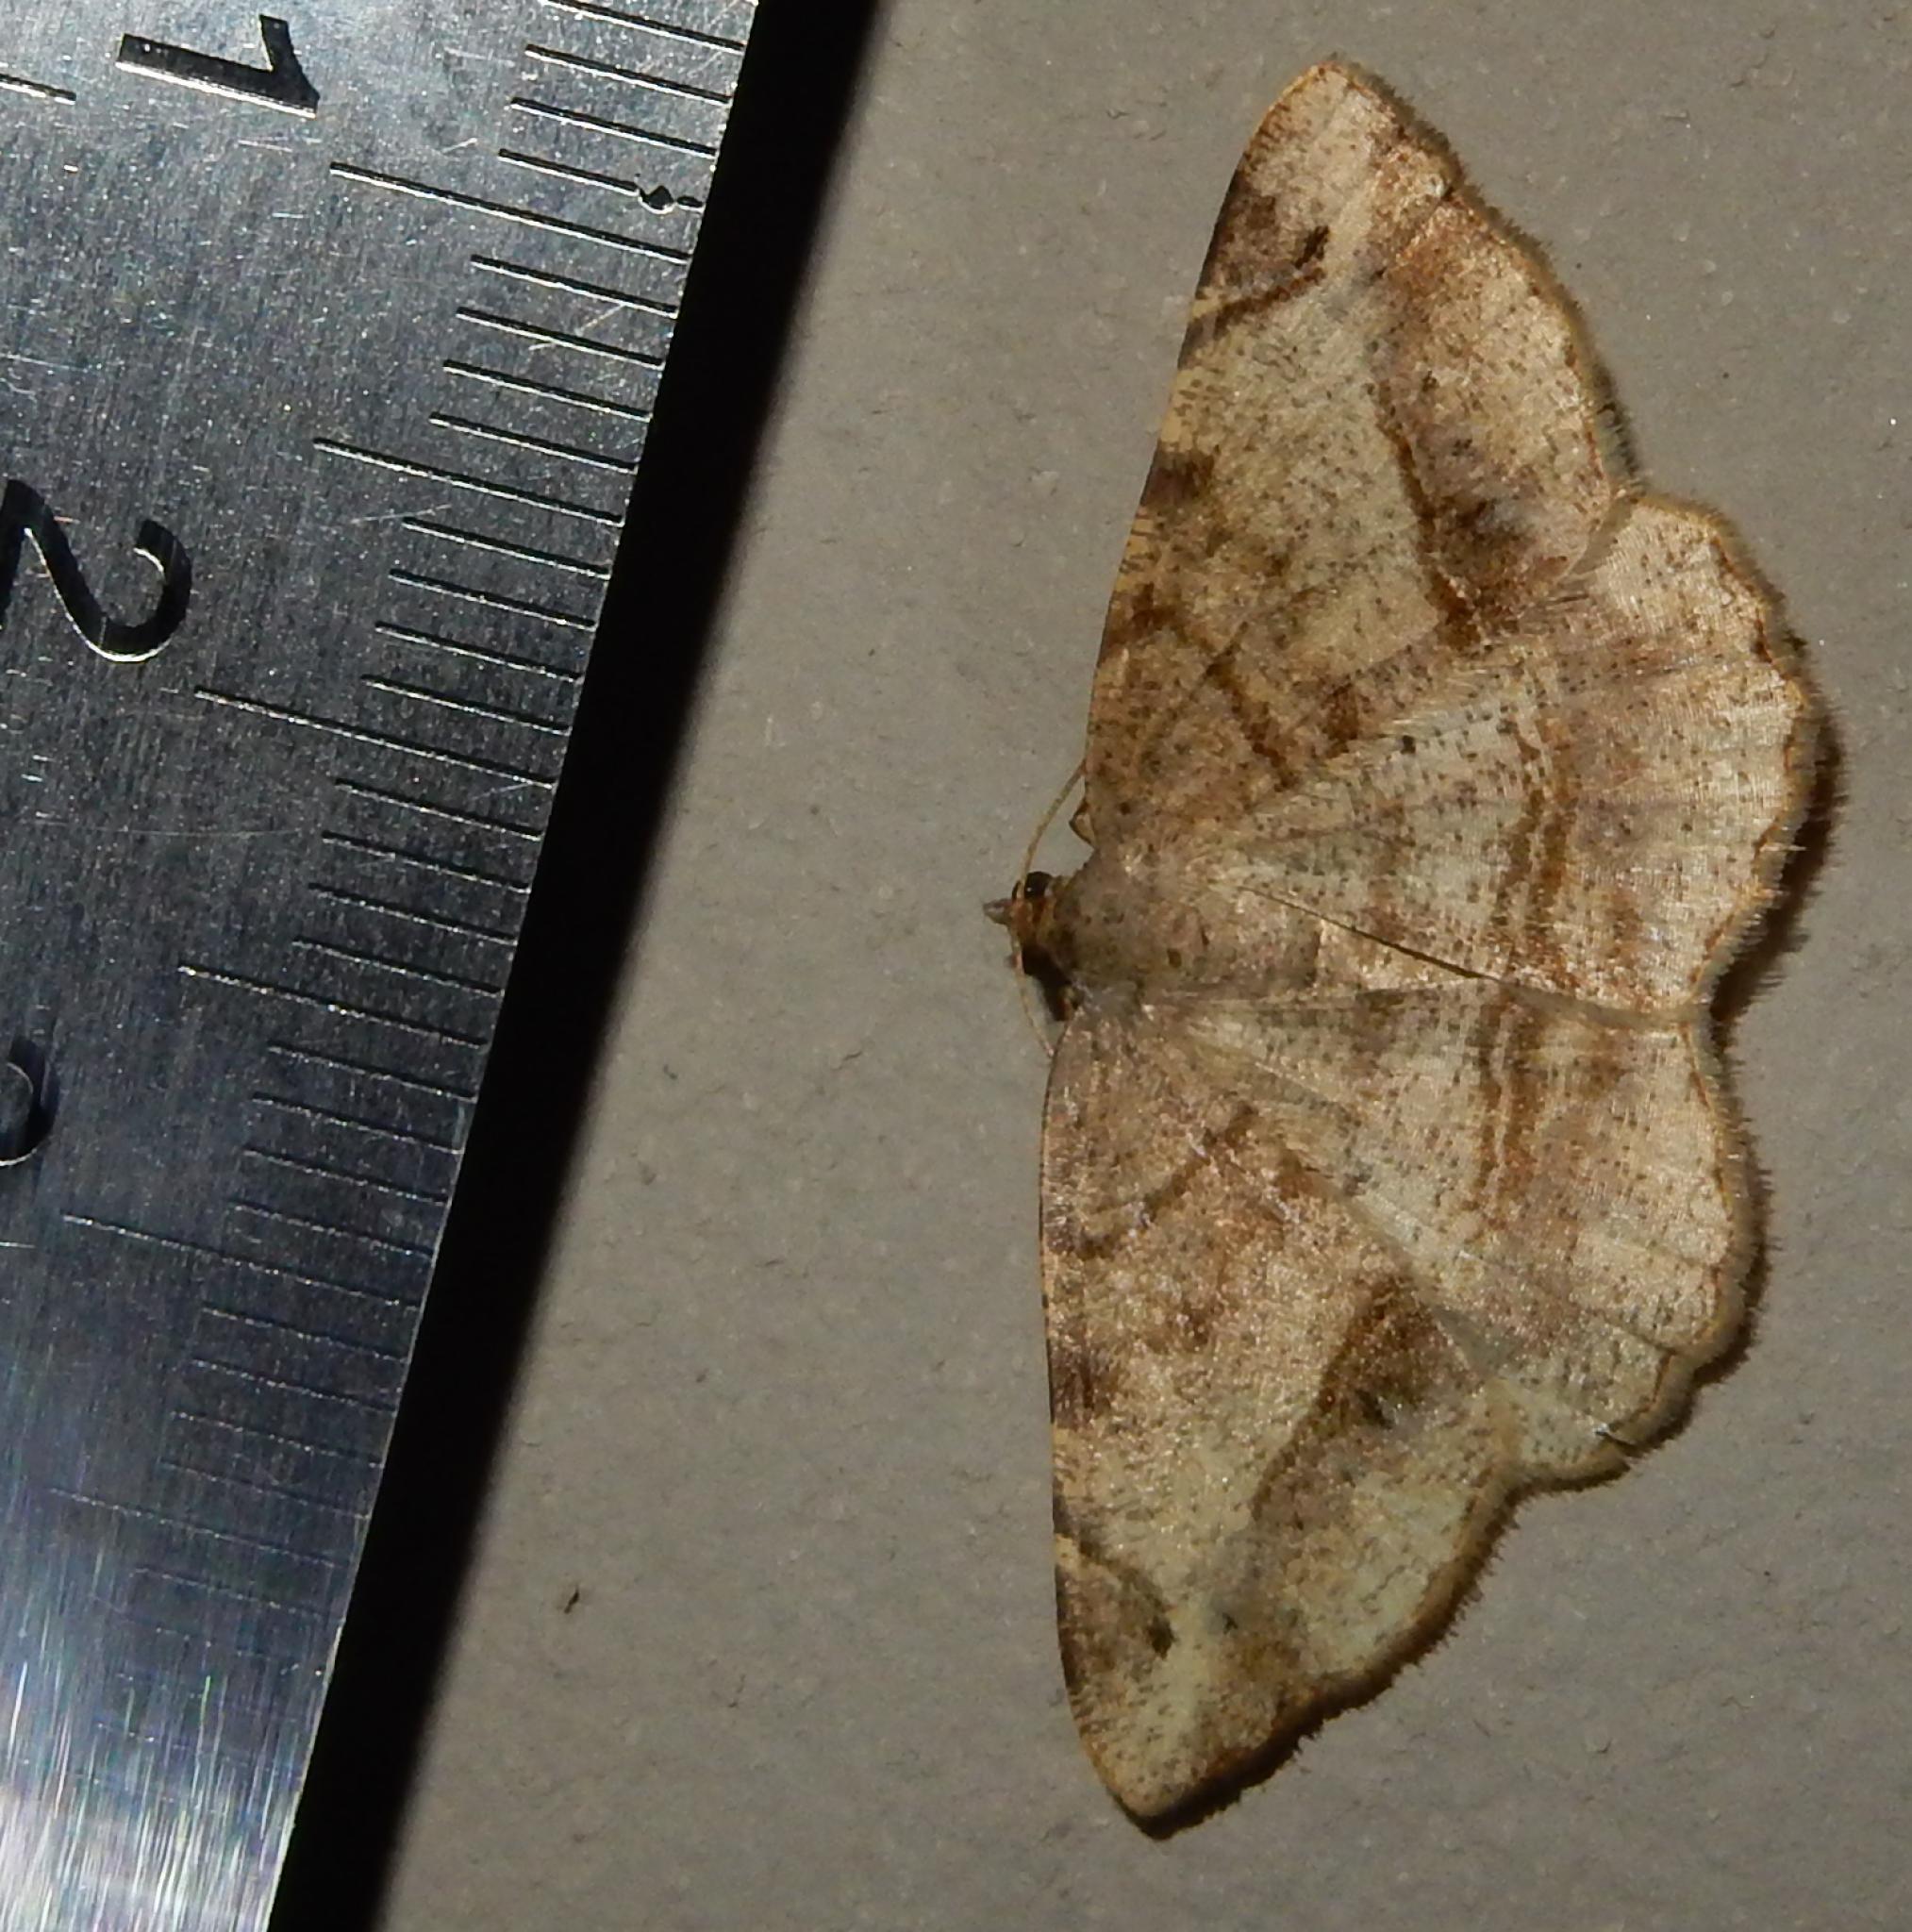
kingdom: Animalia
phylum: Arthropoda
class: Insecta
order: Lepidoptera
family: Geometridae
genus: Chiasmia
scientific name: Chiasmia brongusaria
